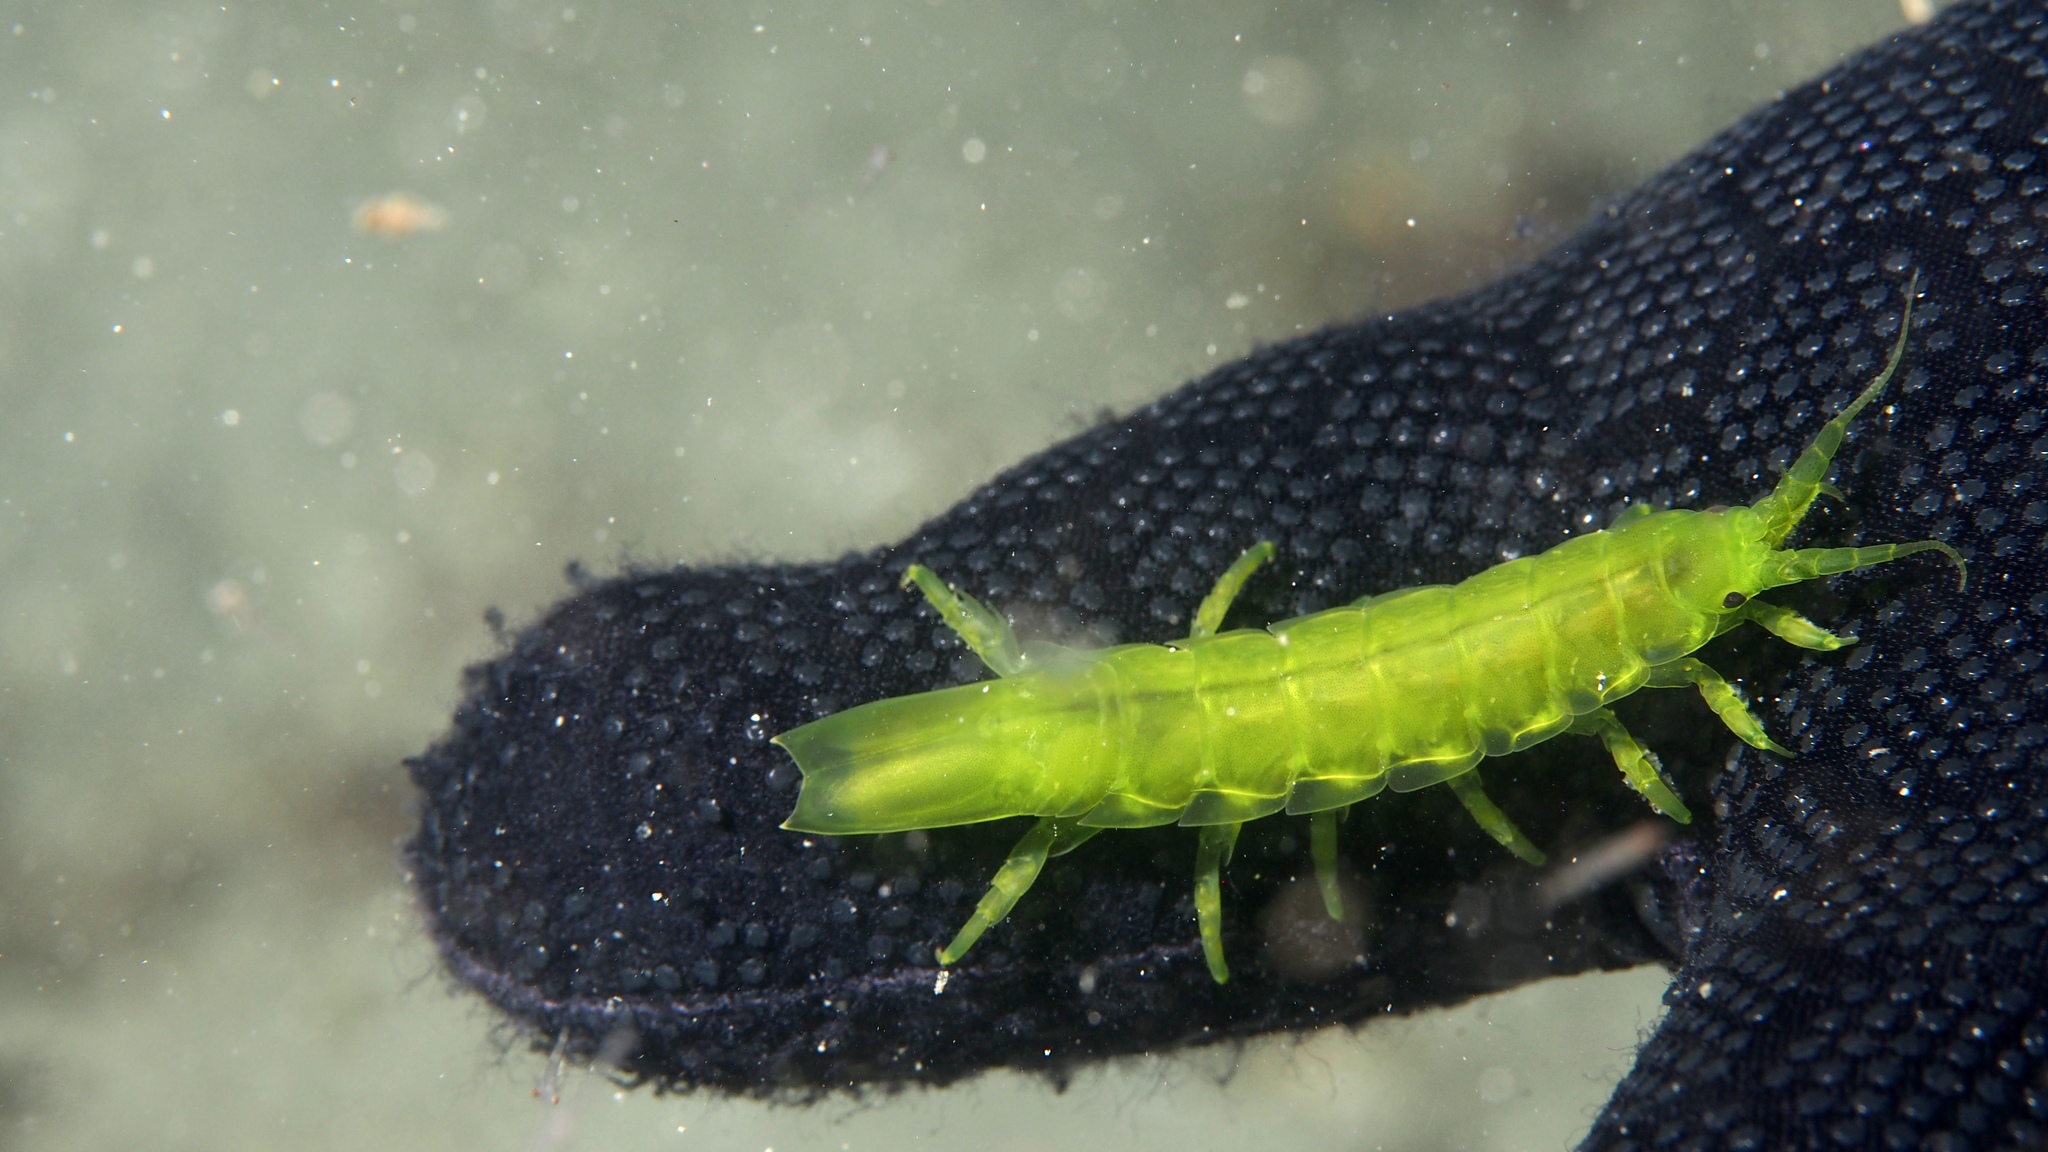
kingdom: Animalia
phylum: Arthropoda
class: Malacostraca
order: Isopoda
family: Idoteidae
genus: Paridotea
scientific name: Paridotea ungulata
